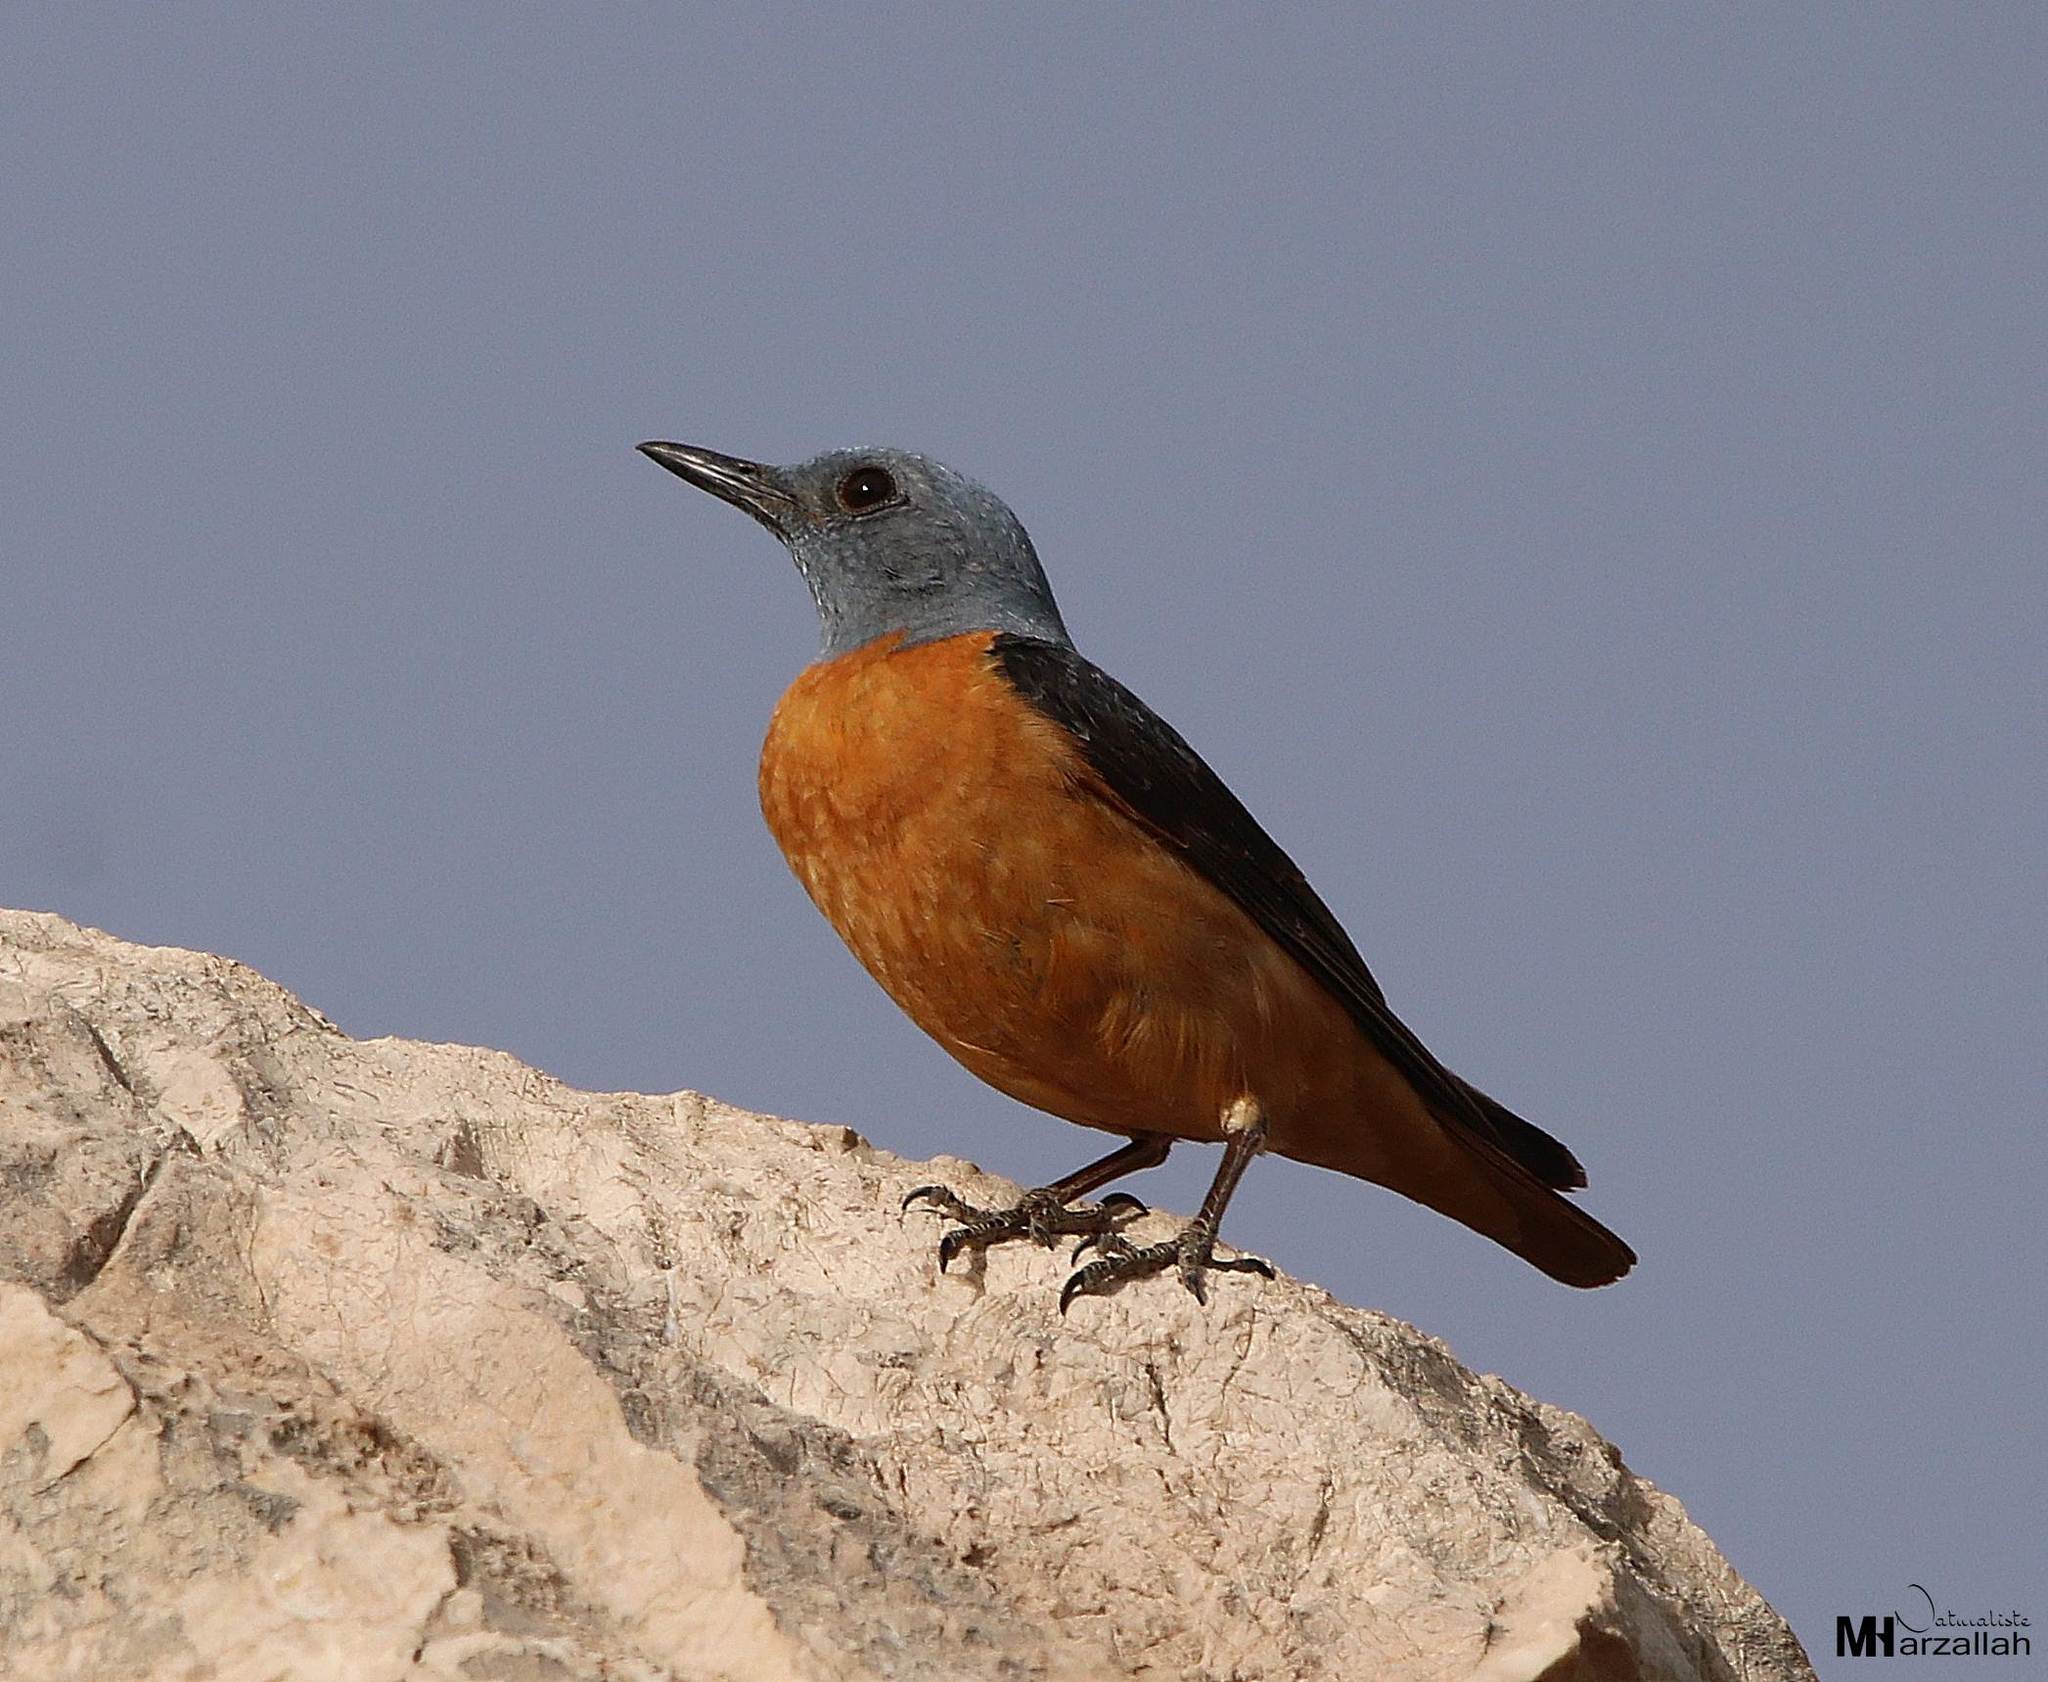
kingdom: Animalia
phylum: Chordata
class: Aves
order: Passeriformes
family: Muscicapidae
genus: Monticola
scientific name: Monticola saxatilis
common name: Rufous-tailed rock thrush
